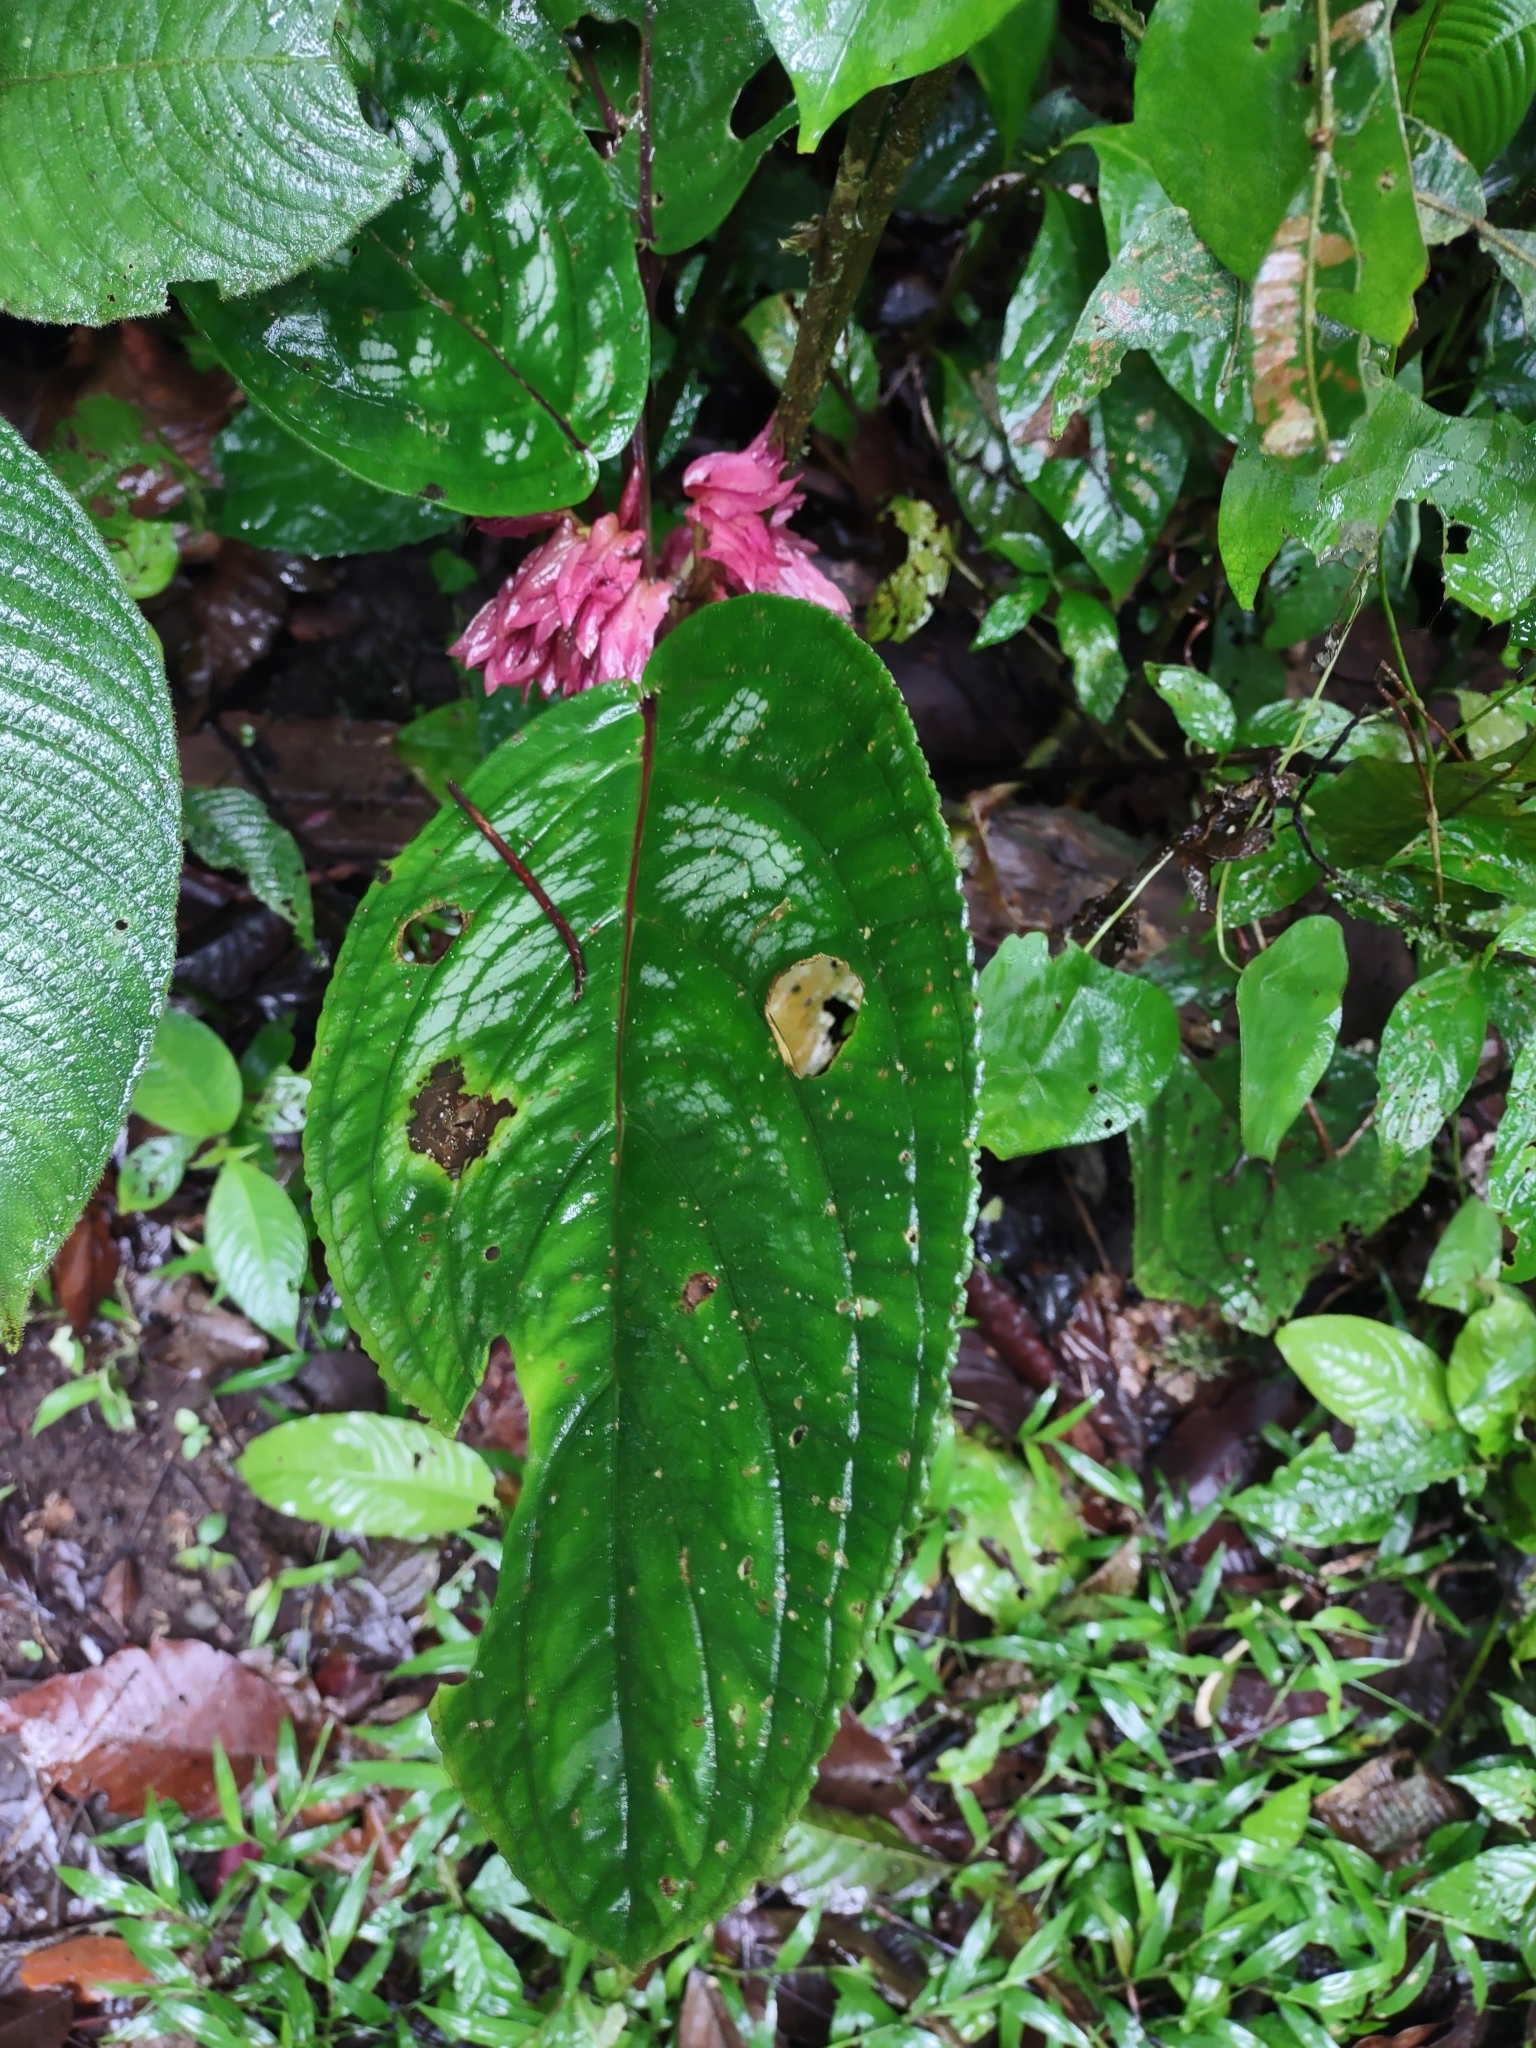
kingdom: Plantae
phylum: Tracheophyta
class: Magnoliopsida
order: Lamiales
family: Gesneriaceae
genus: Drymonia
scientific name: Drymonia turrialvae
